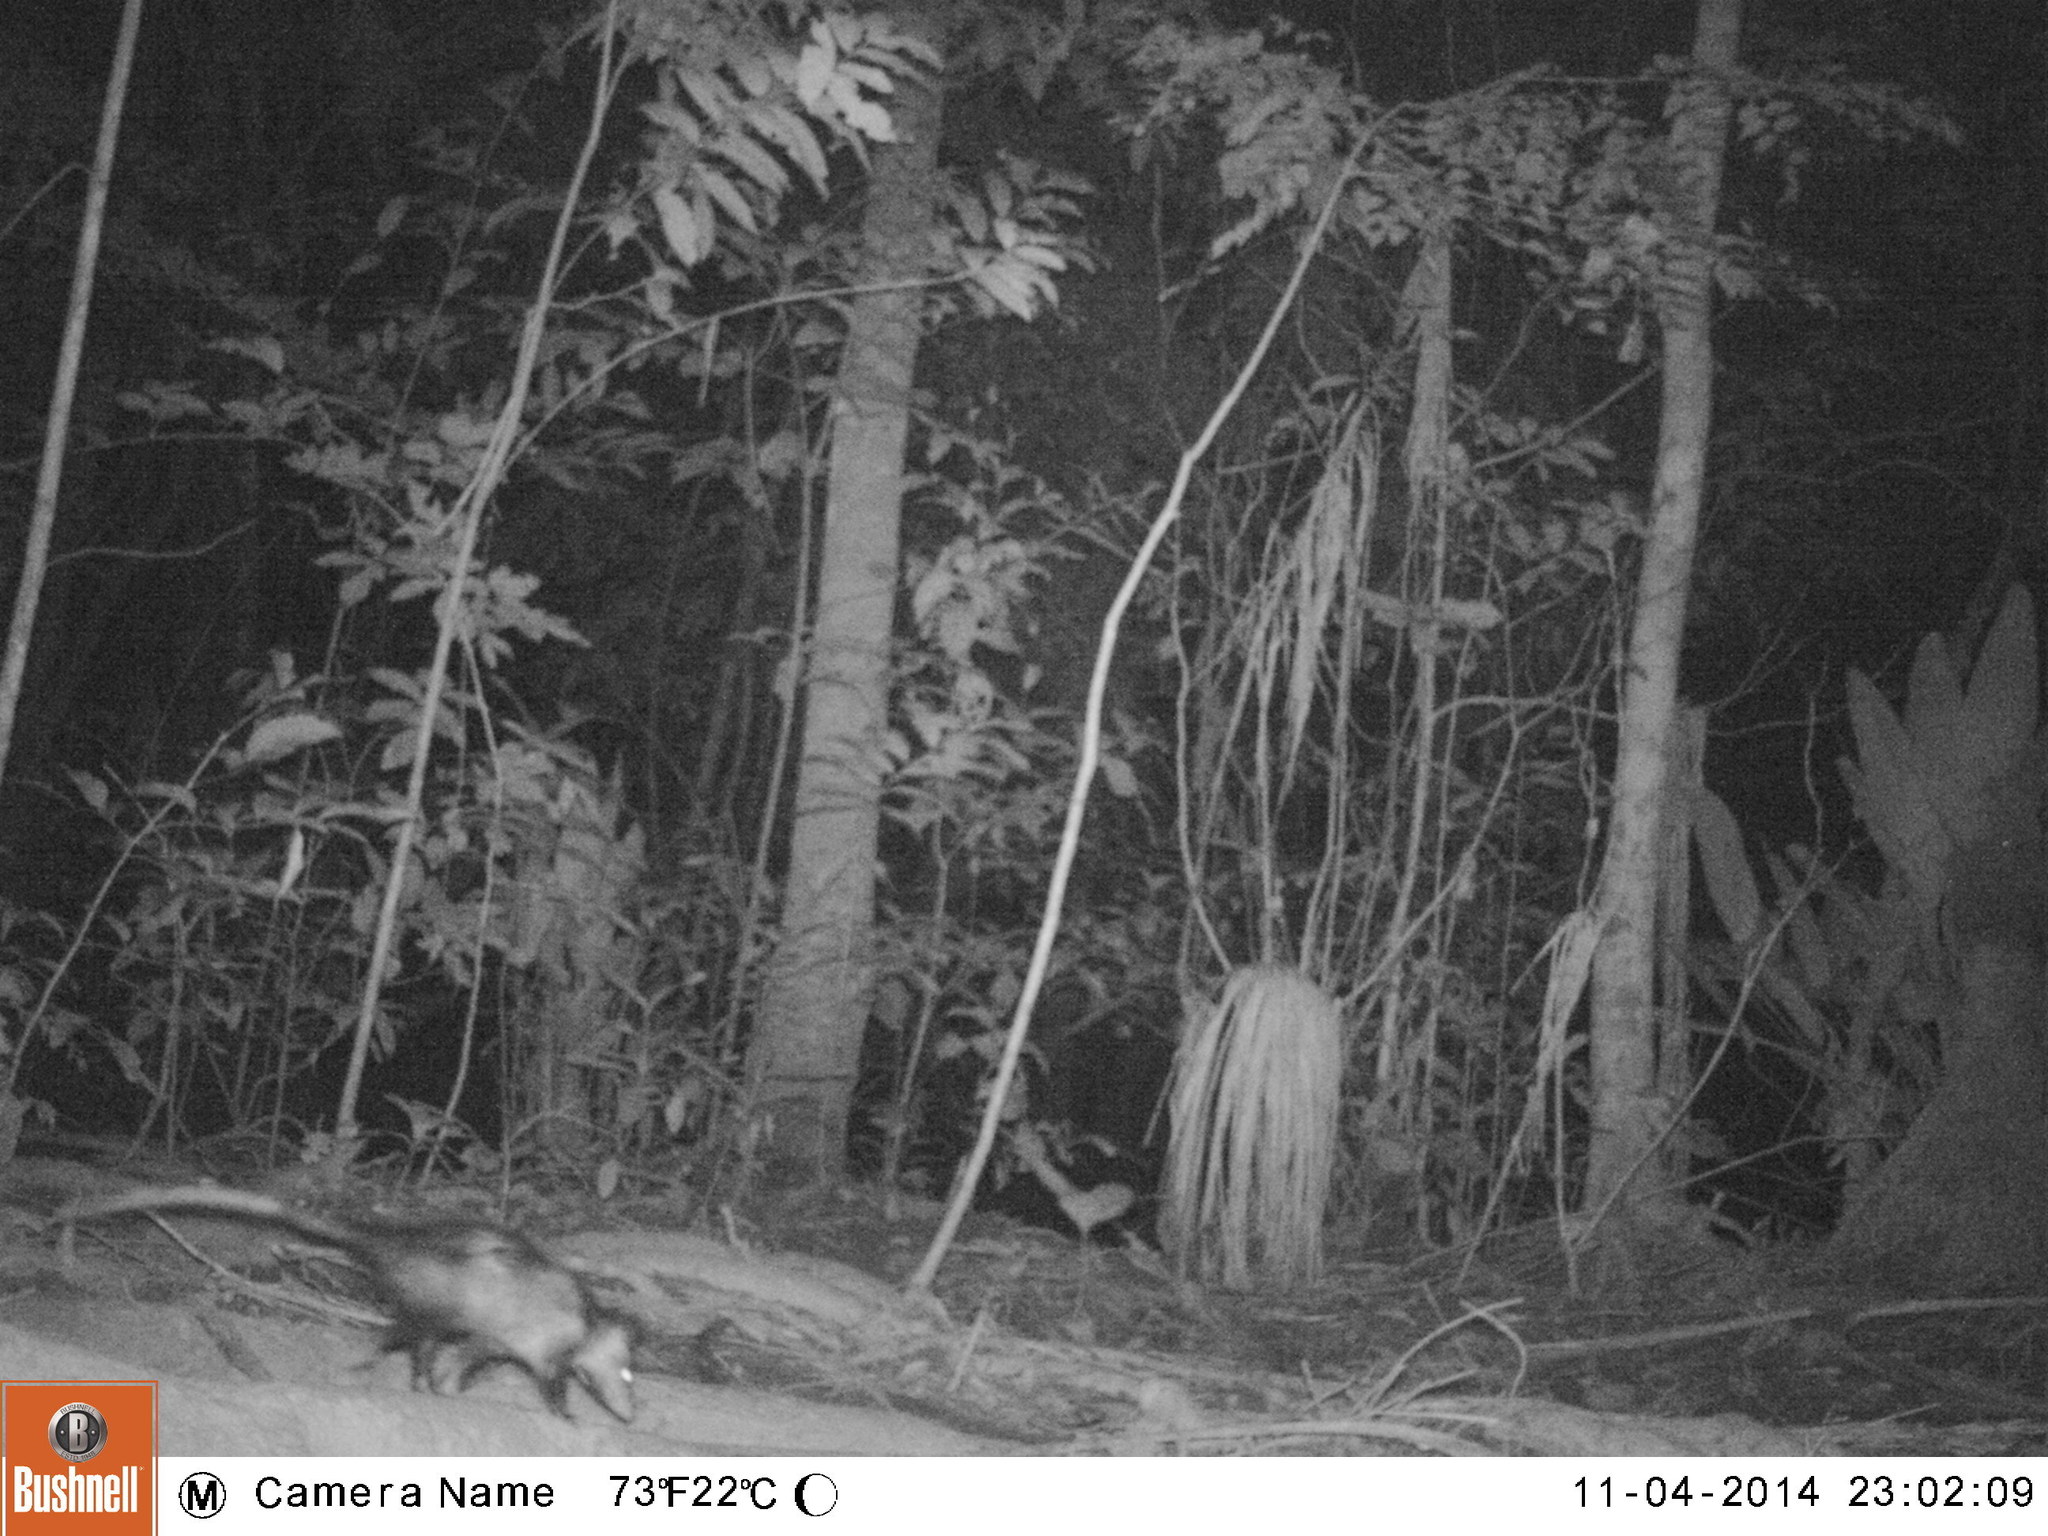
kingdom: Animalia
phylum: Chordata
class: Mammalia
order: Didelphimorphia
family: Didelphidae
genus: Didelphis
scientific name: Didelphis marsupialis
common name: Common opossum
